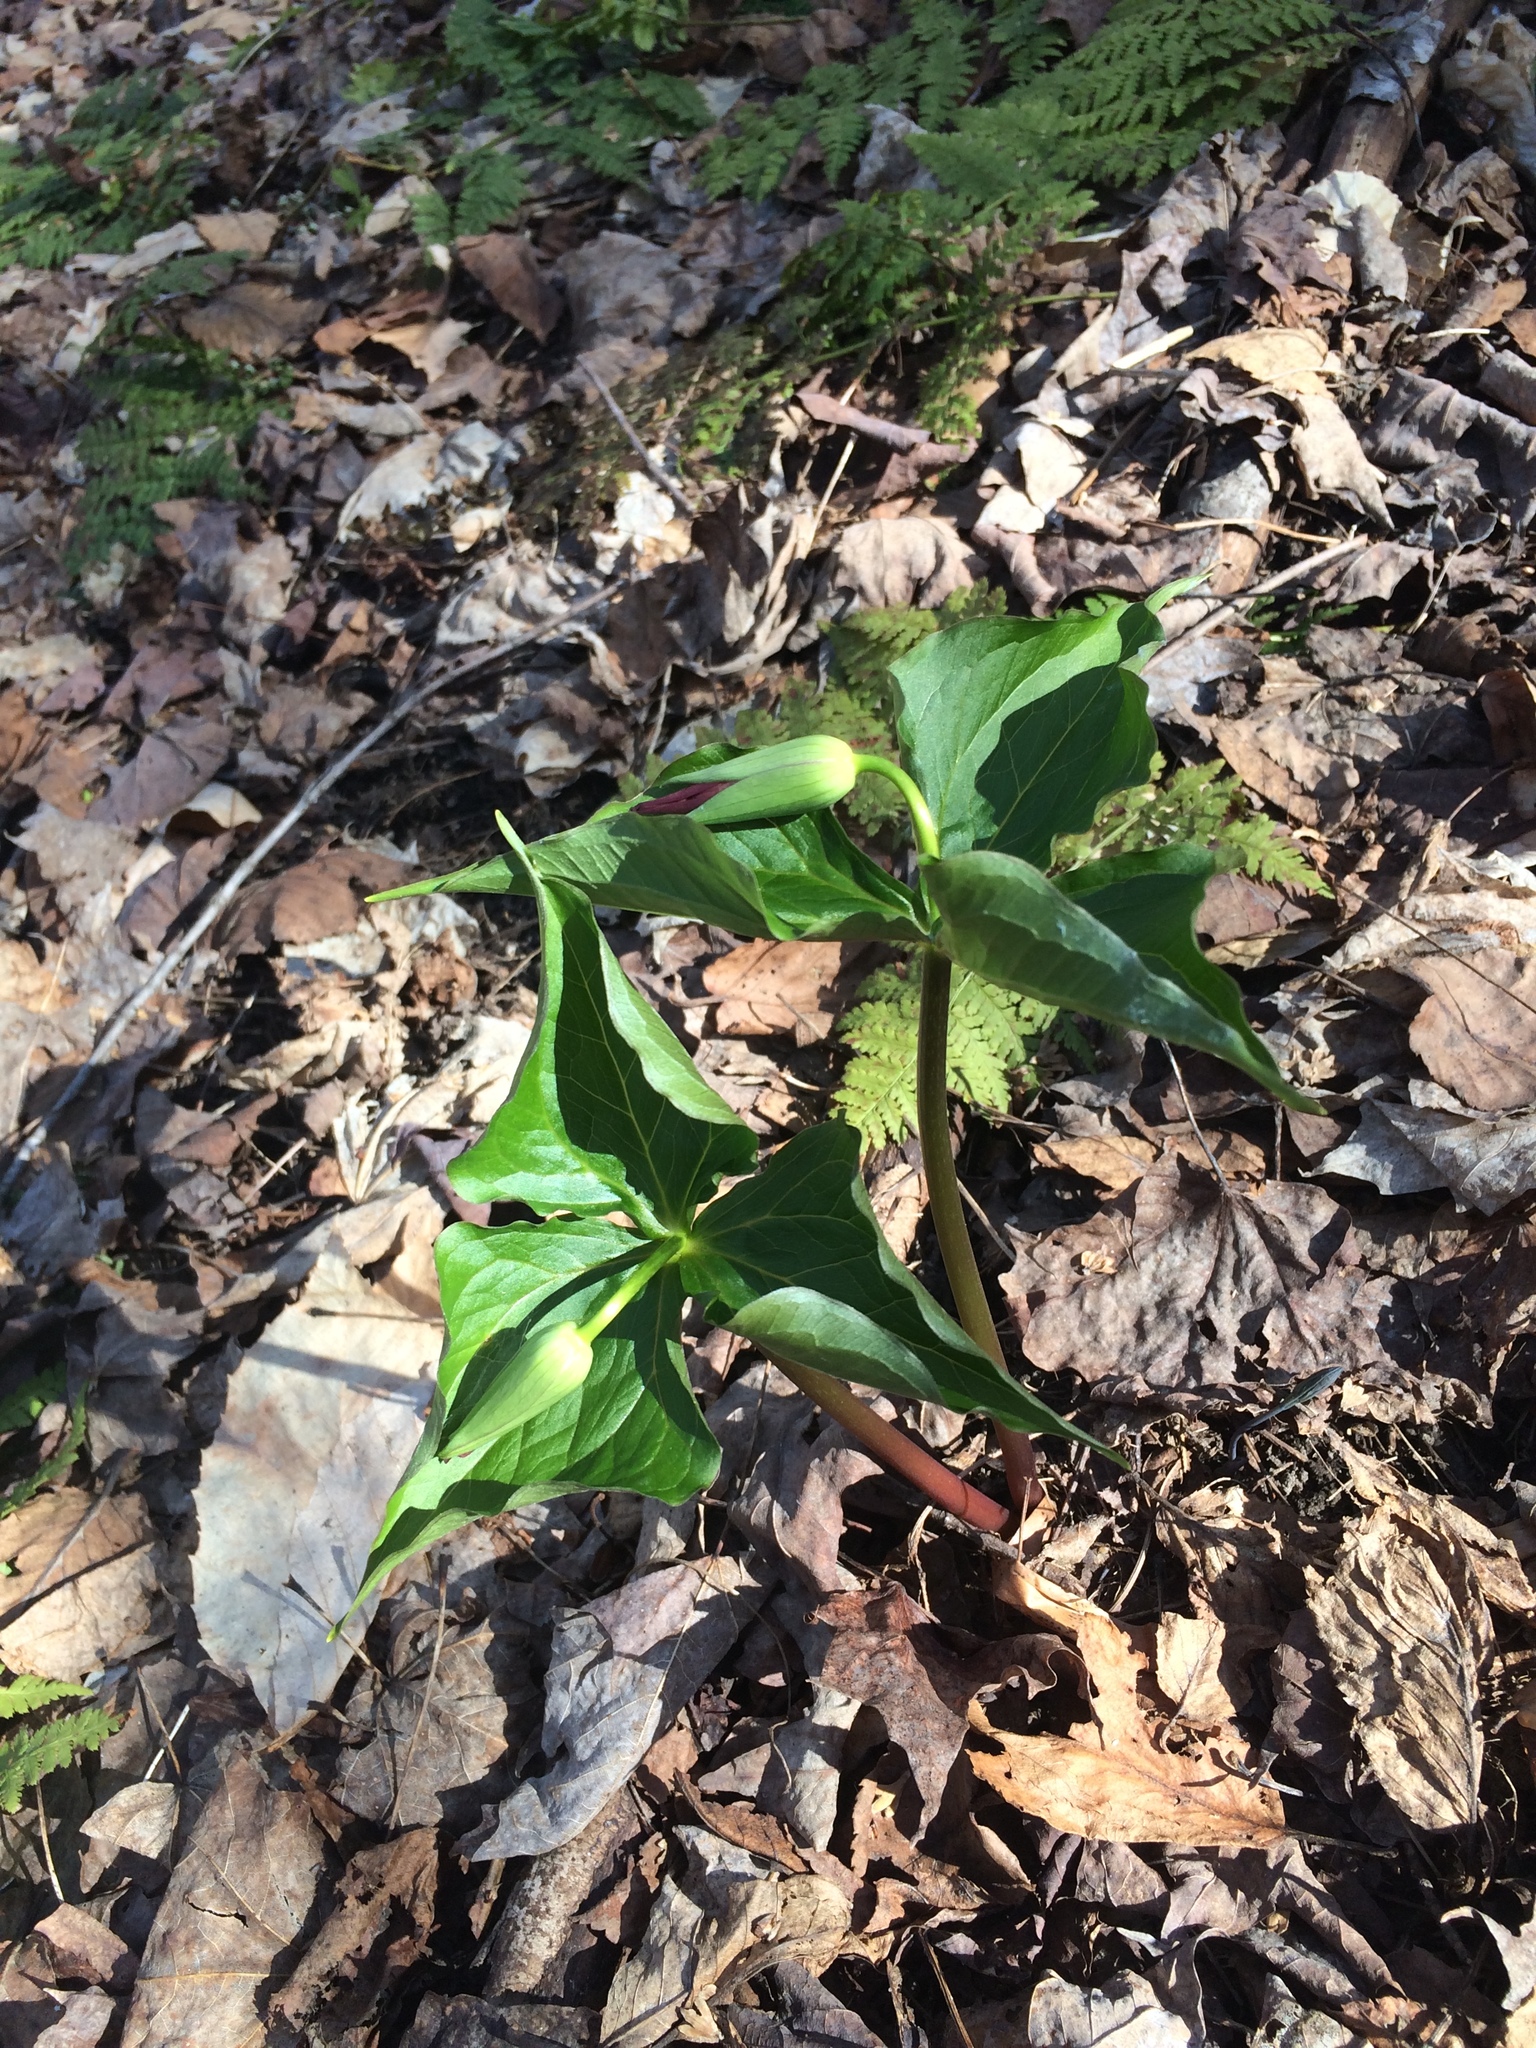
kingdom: Plantae
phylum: Tracheophyta
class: Liliopsida
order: Liliales
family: Melanthiaceae
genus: Trillium
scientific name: Trillium erectum
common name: Purple trillium
